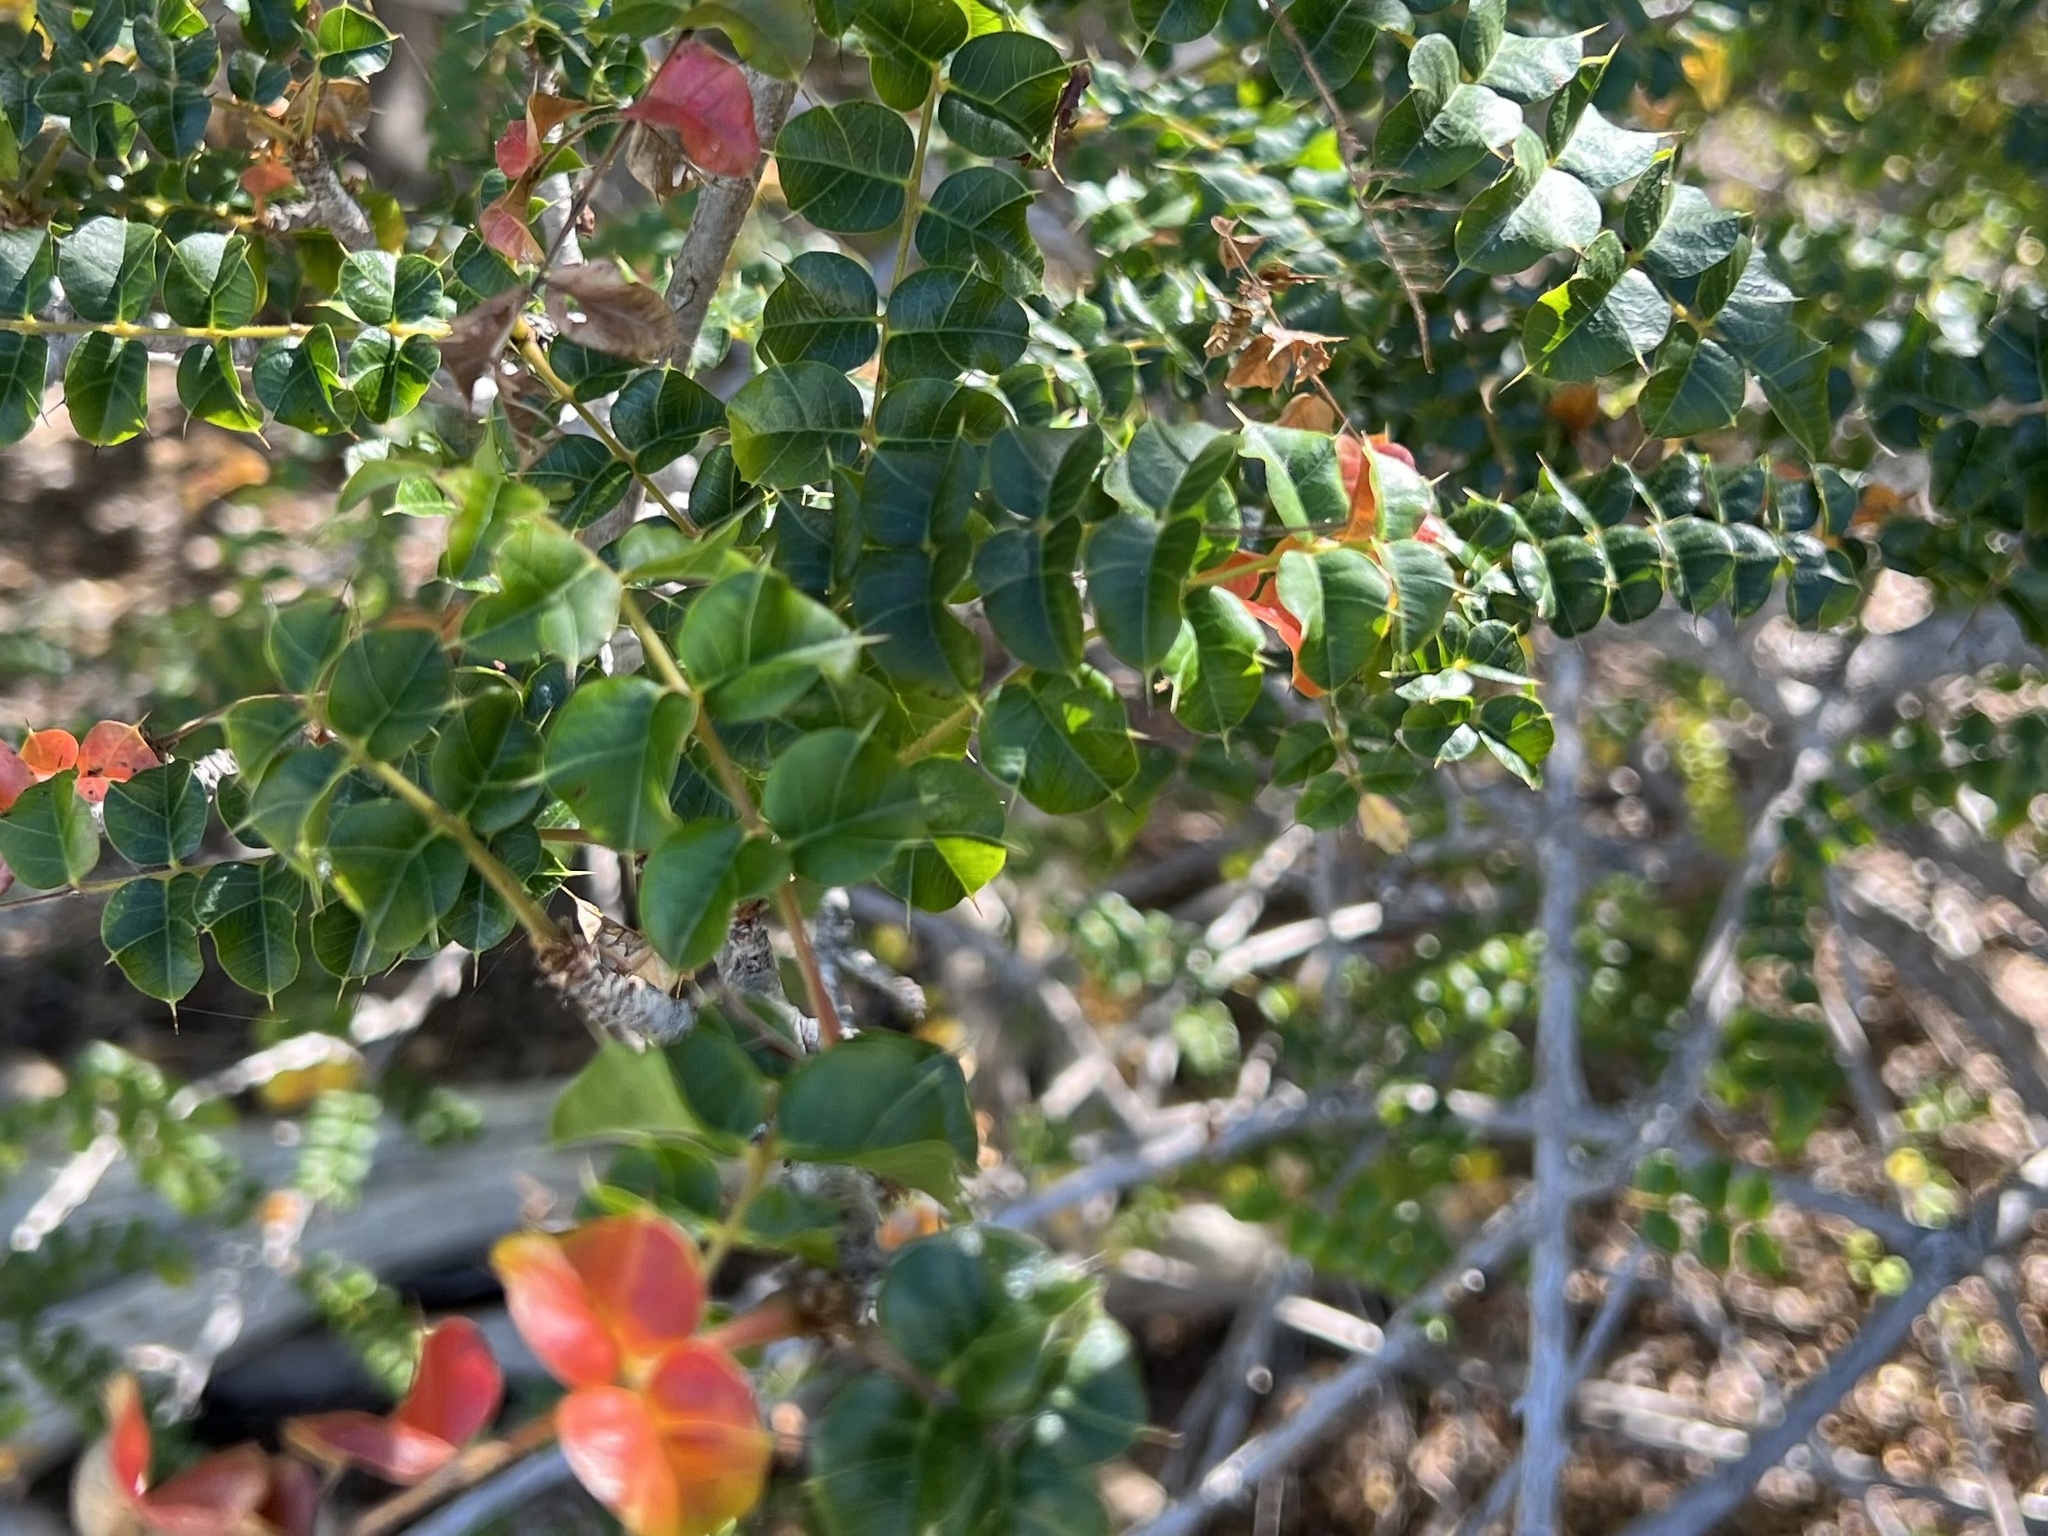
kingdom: Plantae
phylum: Tracheophyta
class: Magnoliopsida
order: Sapindales
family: Anacardiaceae
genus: Comocladia
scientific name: Comocladia dodonaea
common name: Poison ash
